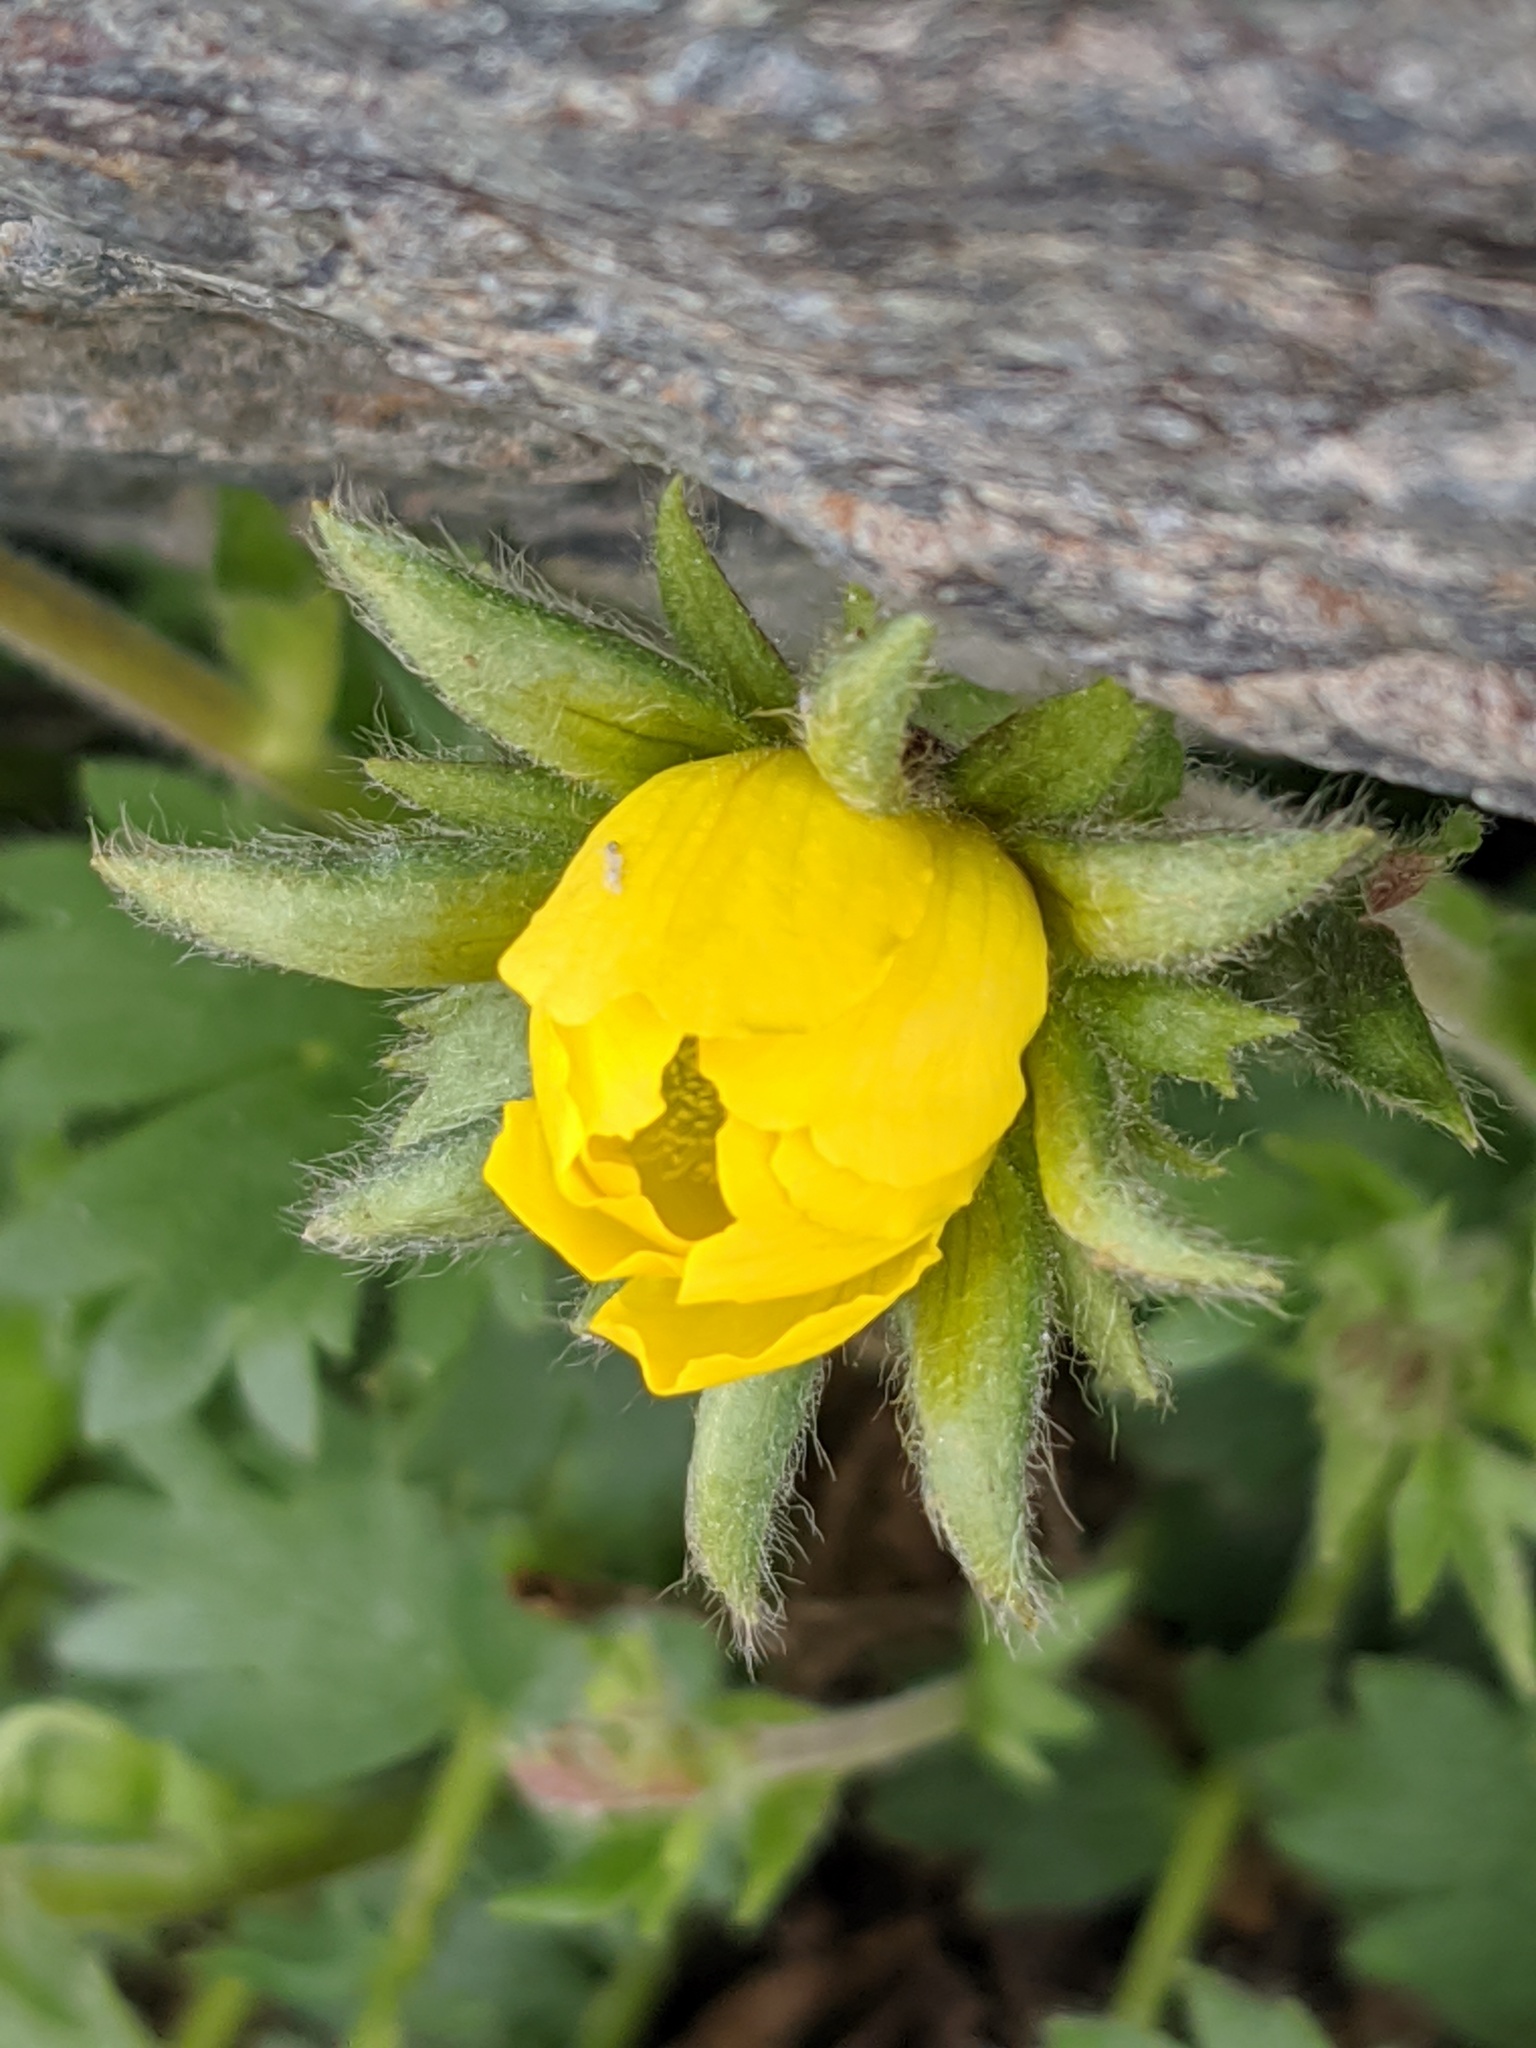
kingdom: Plantae
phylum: Tracheophyta
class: Magnoliopsida
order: Rosales
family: Rosaceae
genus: Geum
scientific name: Geum reptans
